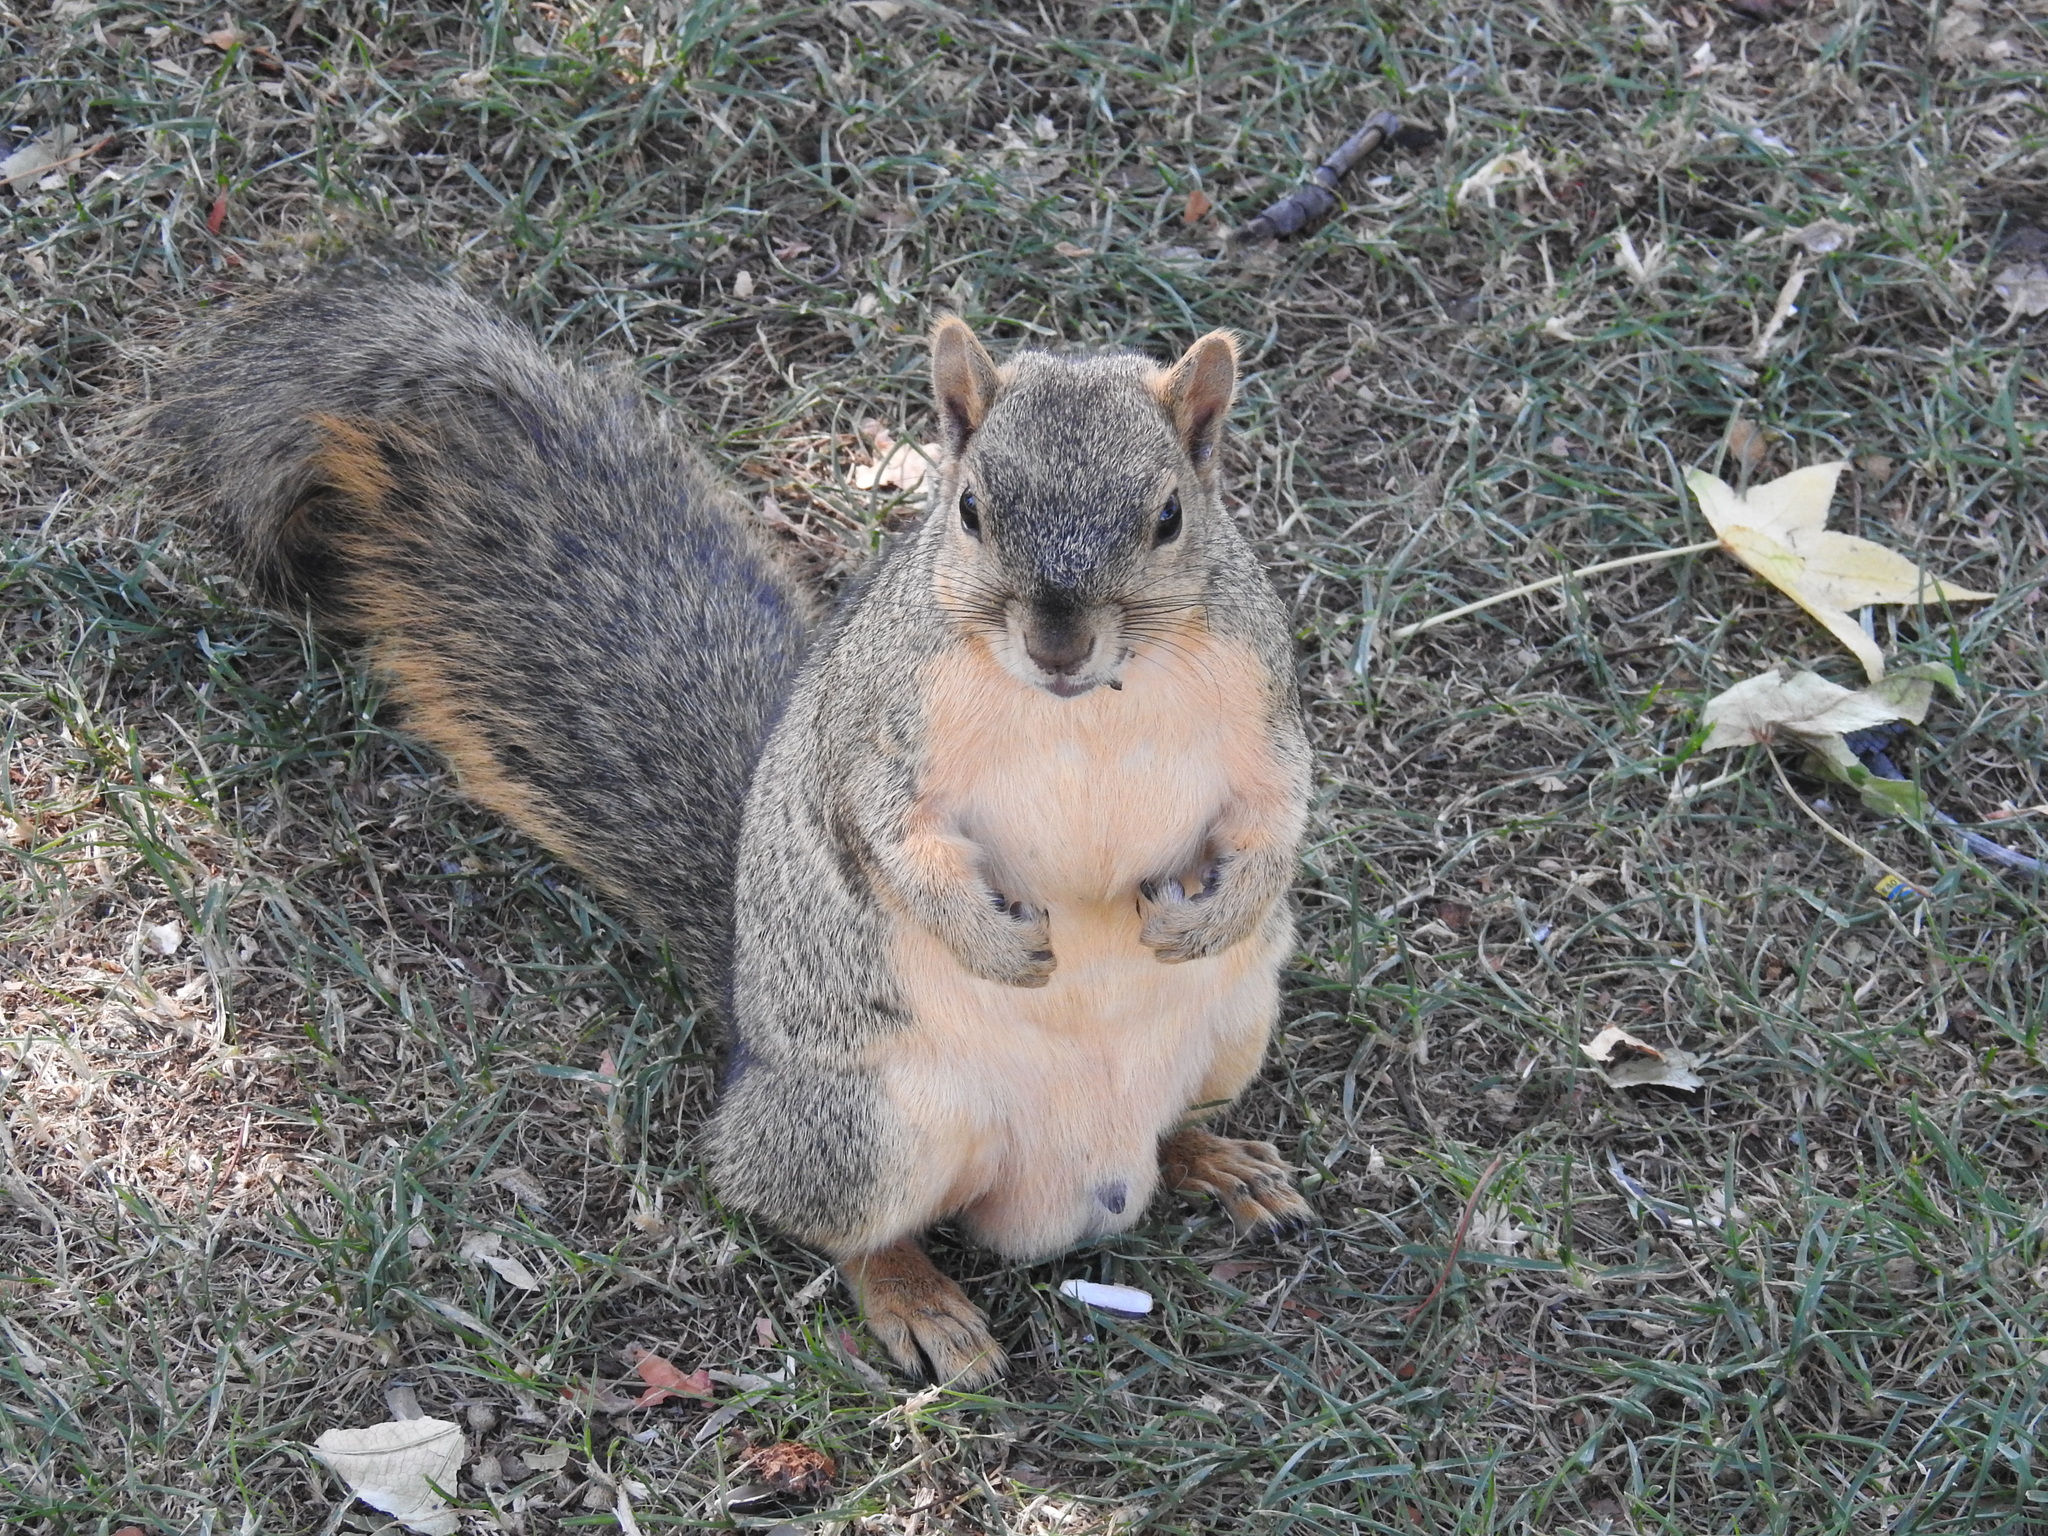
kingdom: Animalia
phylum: Chordata
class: Mammalia
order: Rodentia
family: Sciuridae
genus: Sciurus
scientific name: Sciurus niger
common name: Fox squirrel
